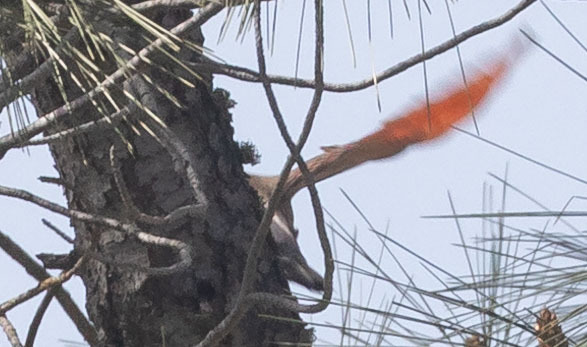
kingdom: Animalia
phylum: Chordata
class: Aves
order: Piciformes
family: Picidae
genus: Colaptes
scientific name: Colaptes auratus
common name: Northern flicker
